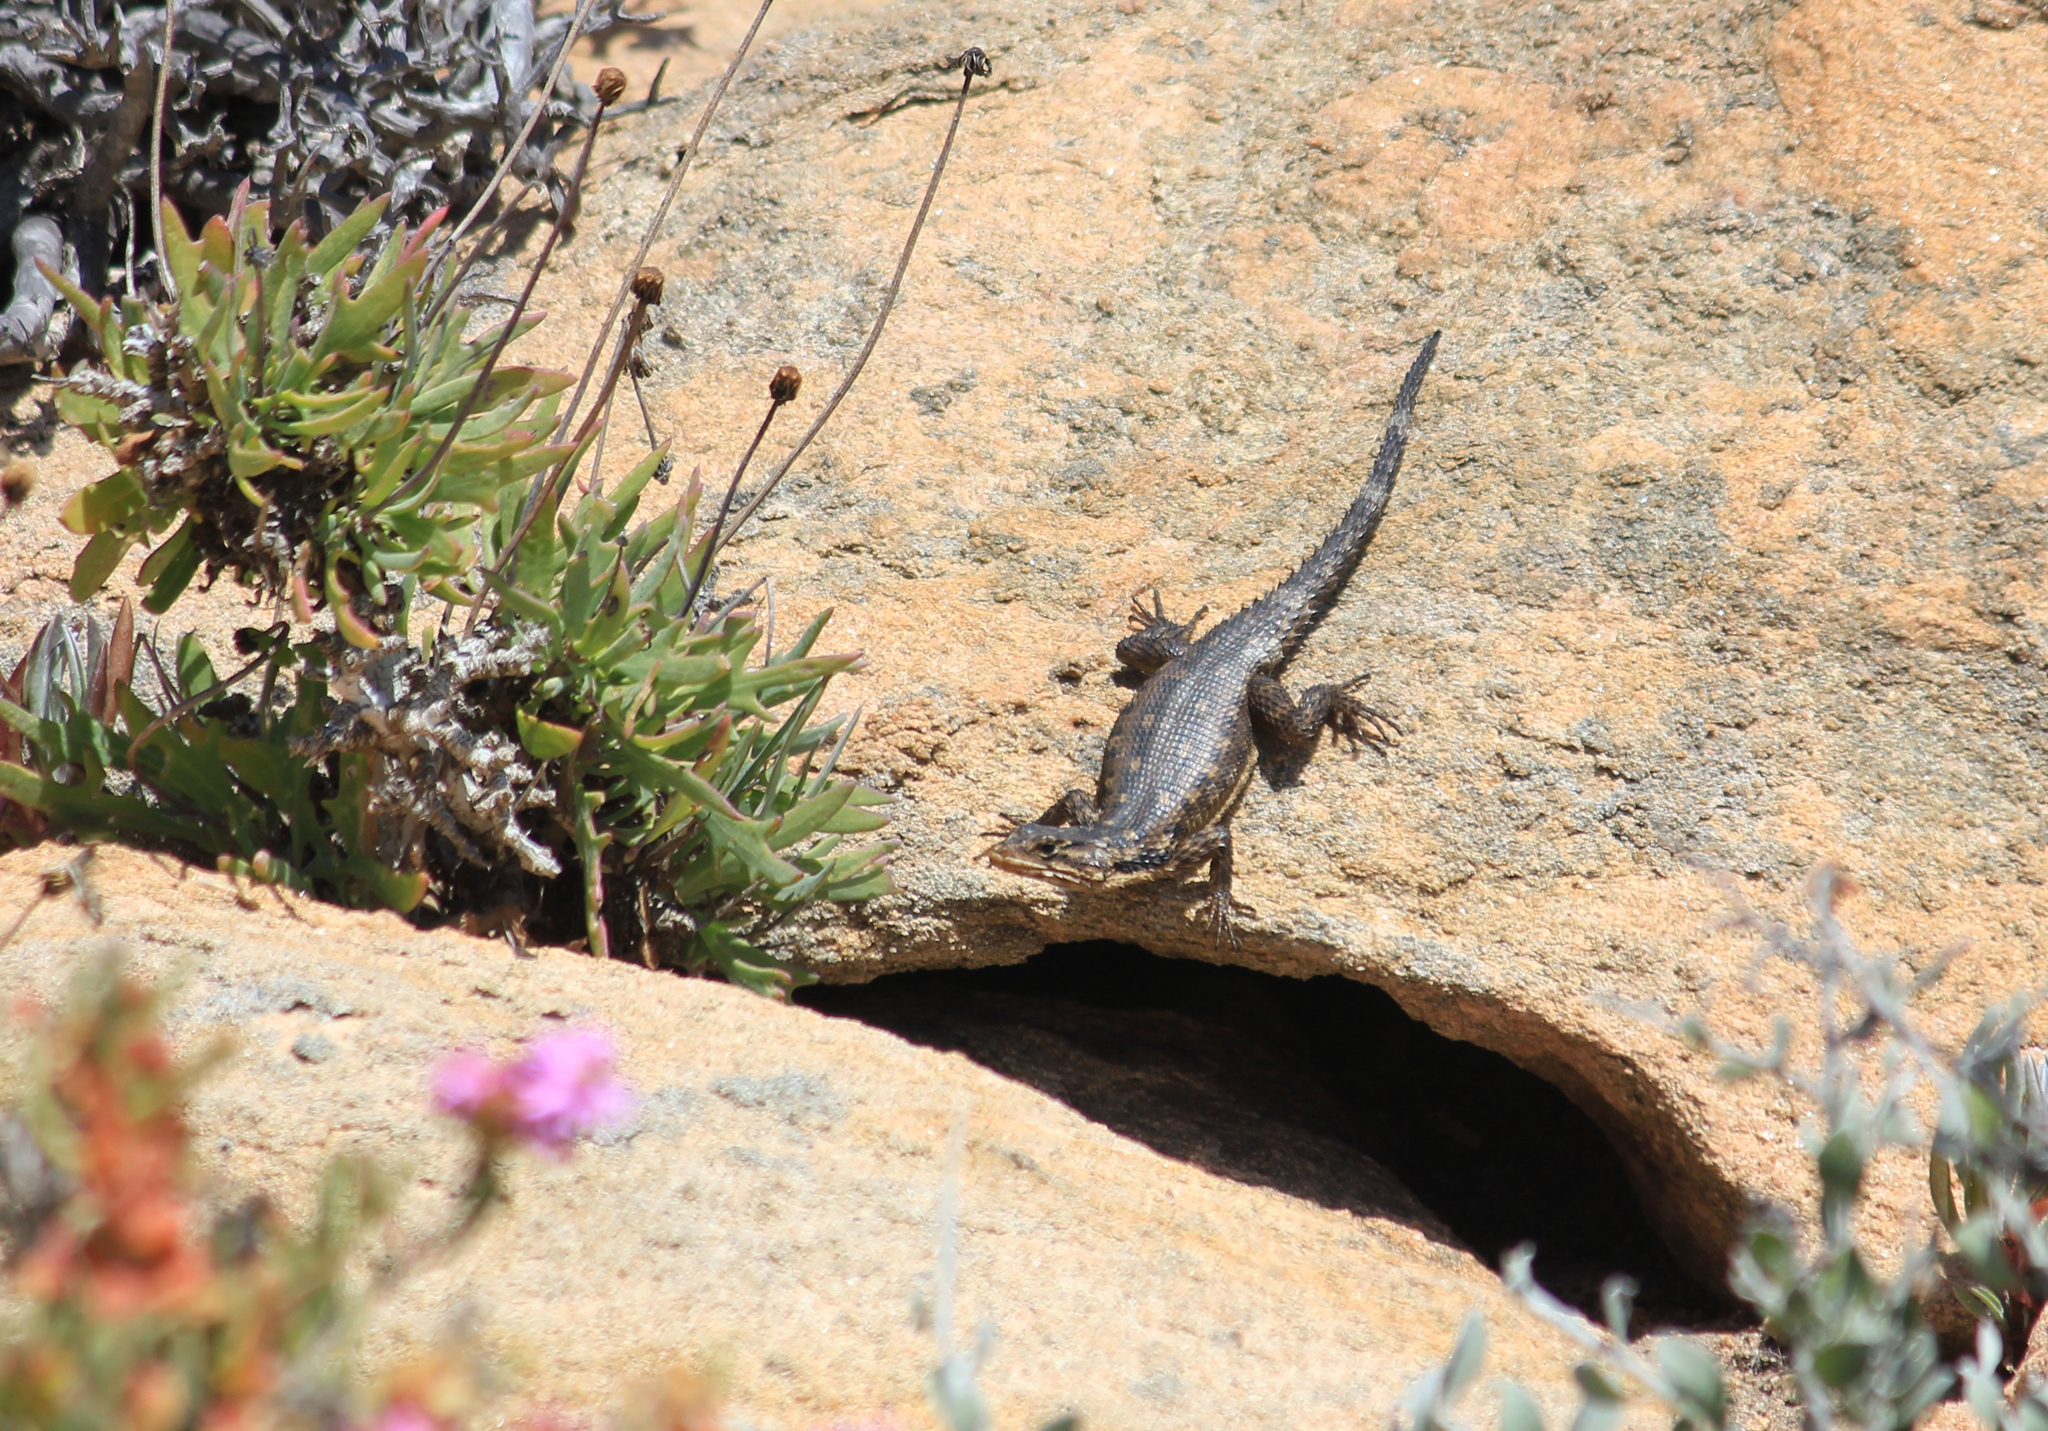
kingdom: Animalia
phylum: Chordata
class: Squamata
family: Cordylidae
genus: Karusasaurus
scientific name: Karusasaurus polyzonus
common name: Karoo girdled lizard
